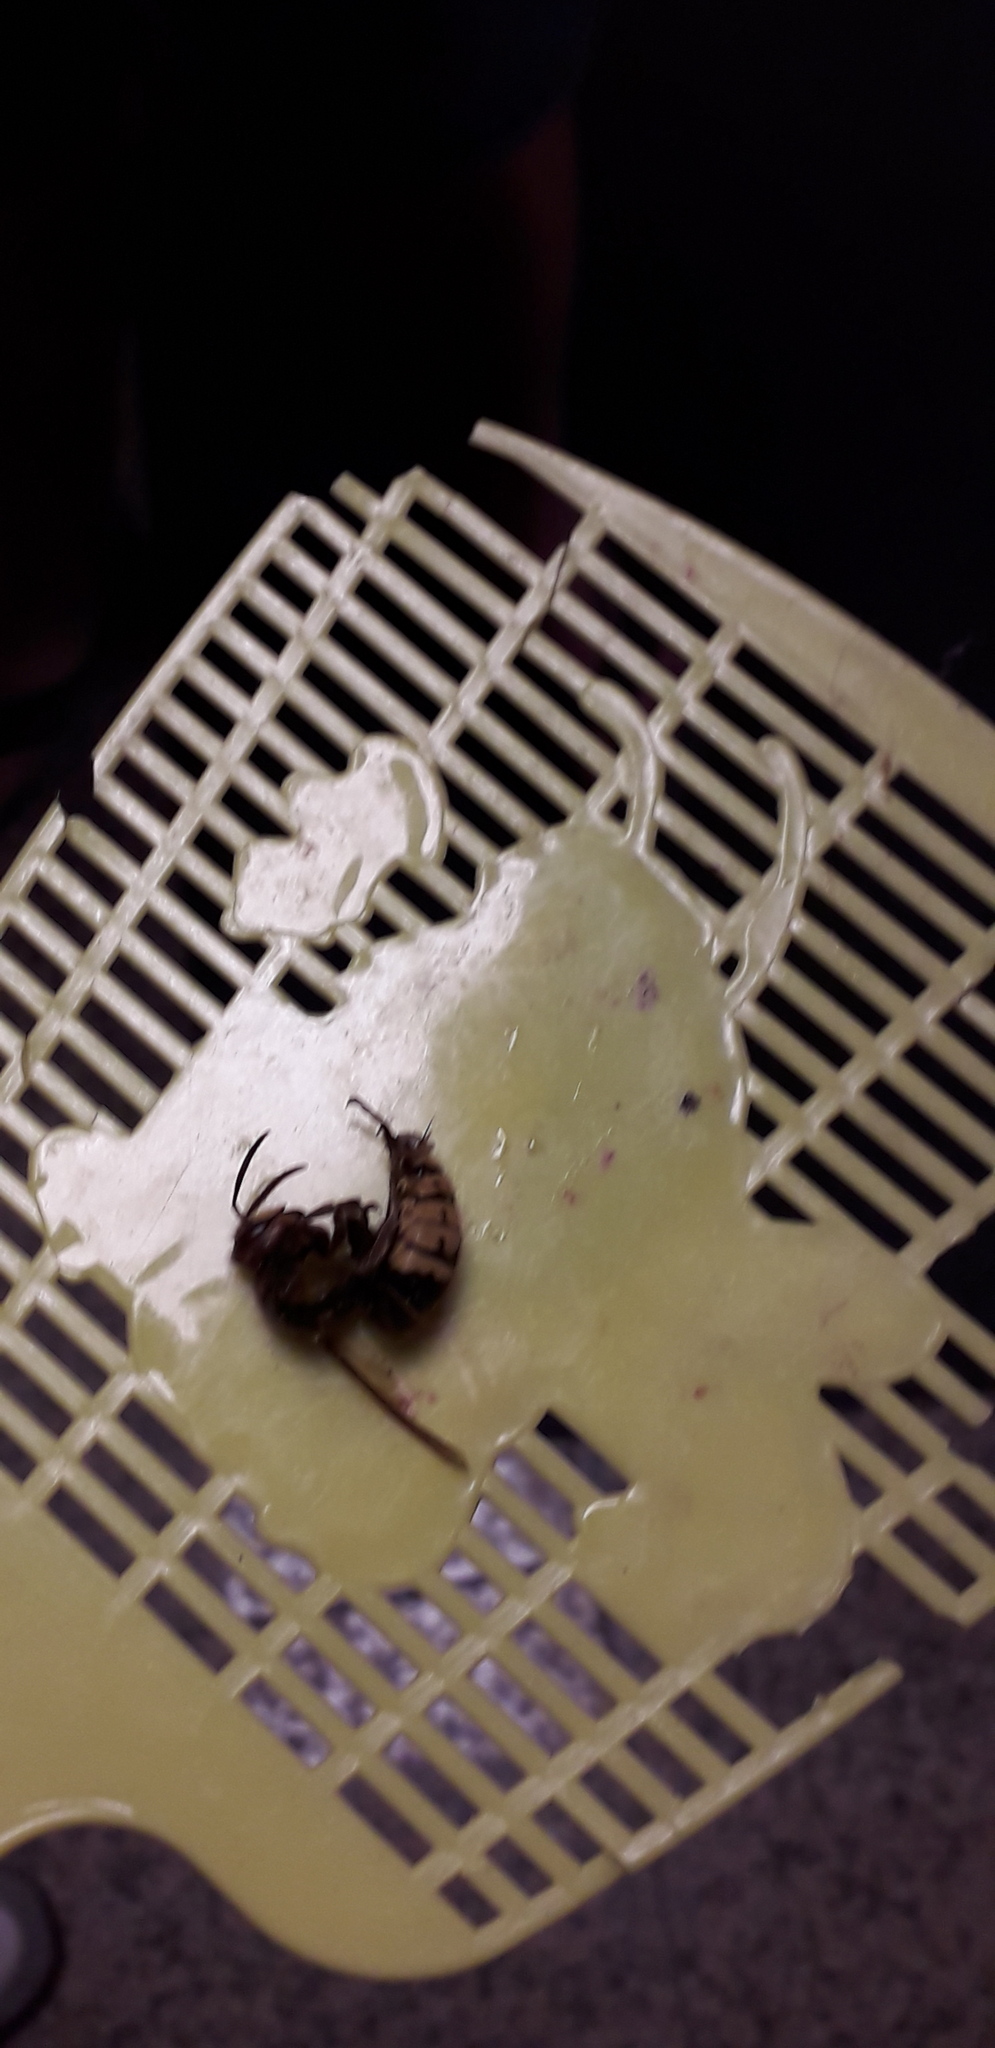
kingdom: Animalia
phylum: Arthropoda
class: Insecta
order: Hymenoptera
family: Vespidae
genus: Vespa
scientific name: Vespa crabro
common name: Hornet
